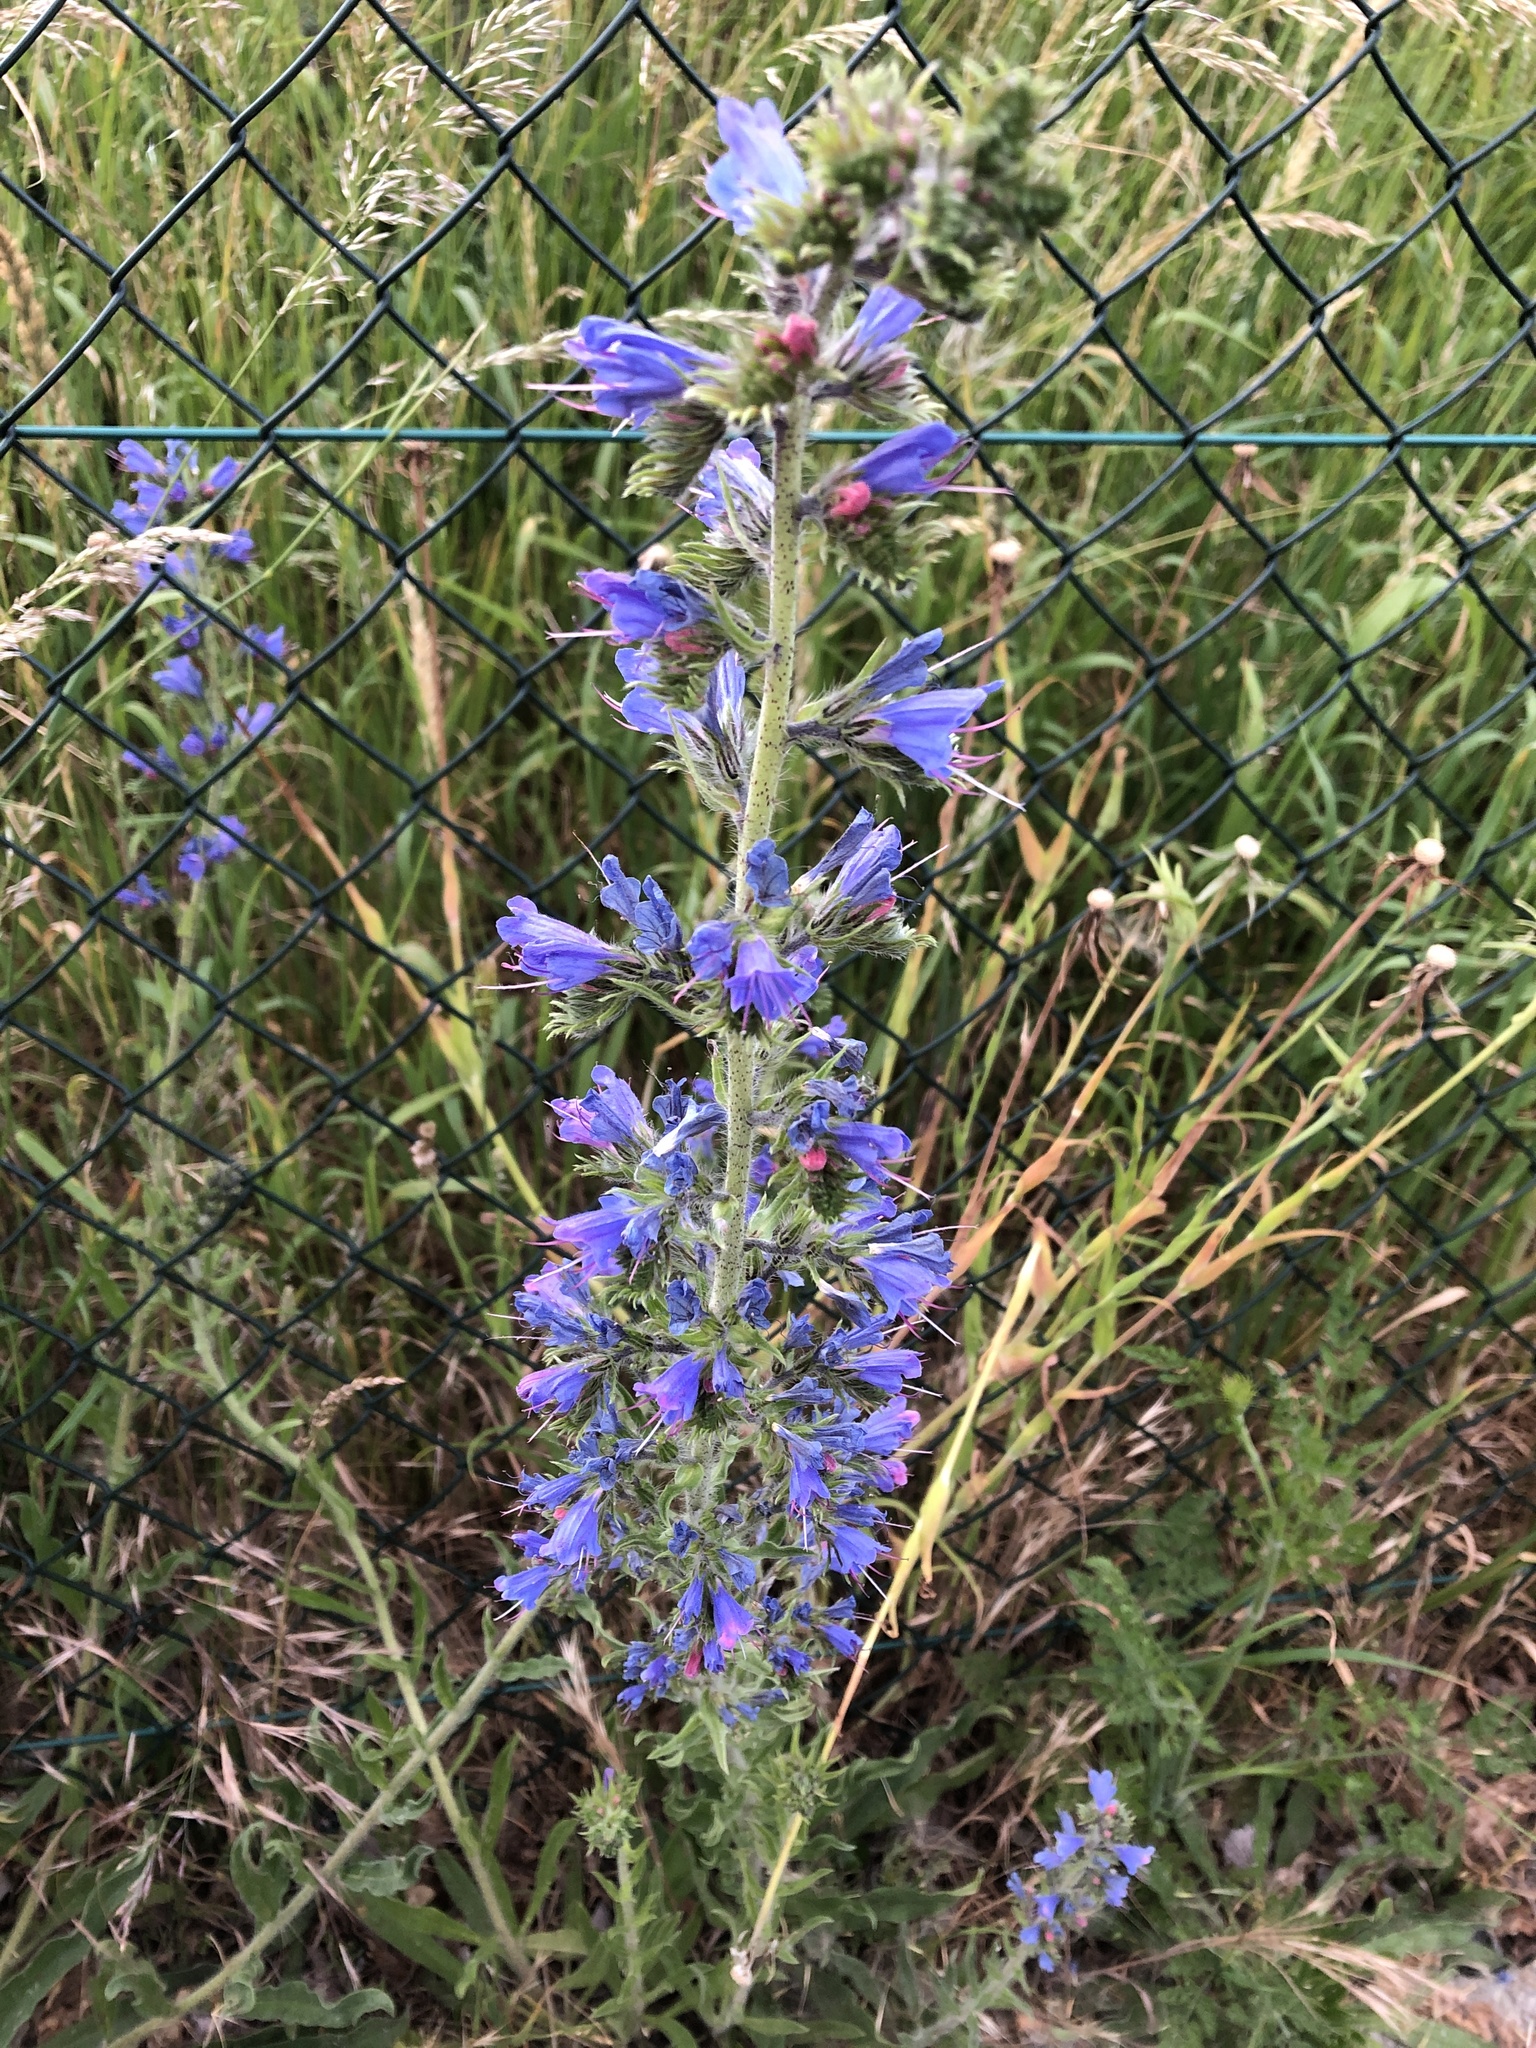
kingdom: Plantae
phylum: Tracheophyta
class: Magnoliopsida
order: Boraginales
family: Boraginaceae
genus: Echium
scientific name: Echium vulgare
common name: Common viper's bugloss
